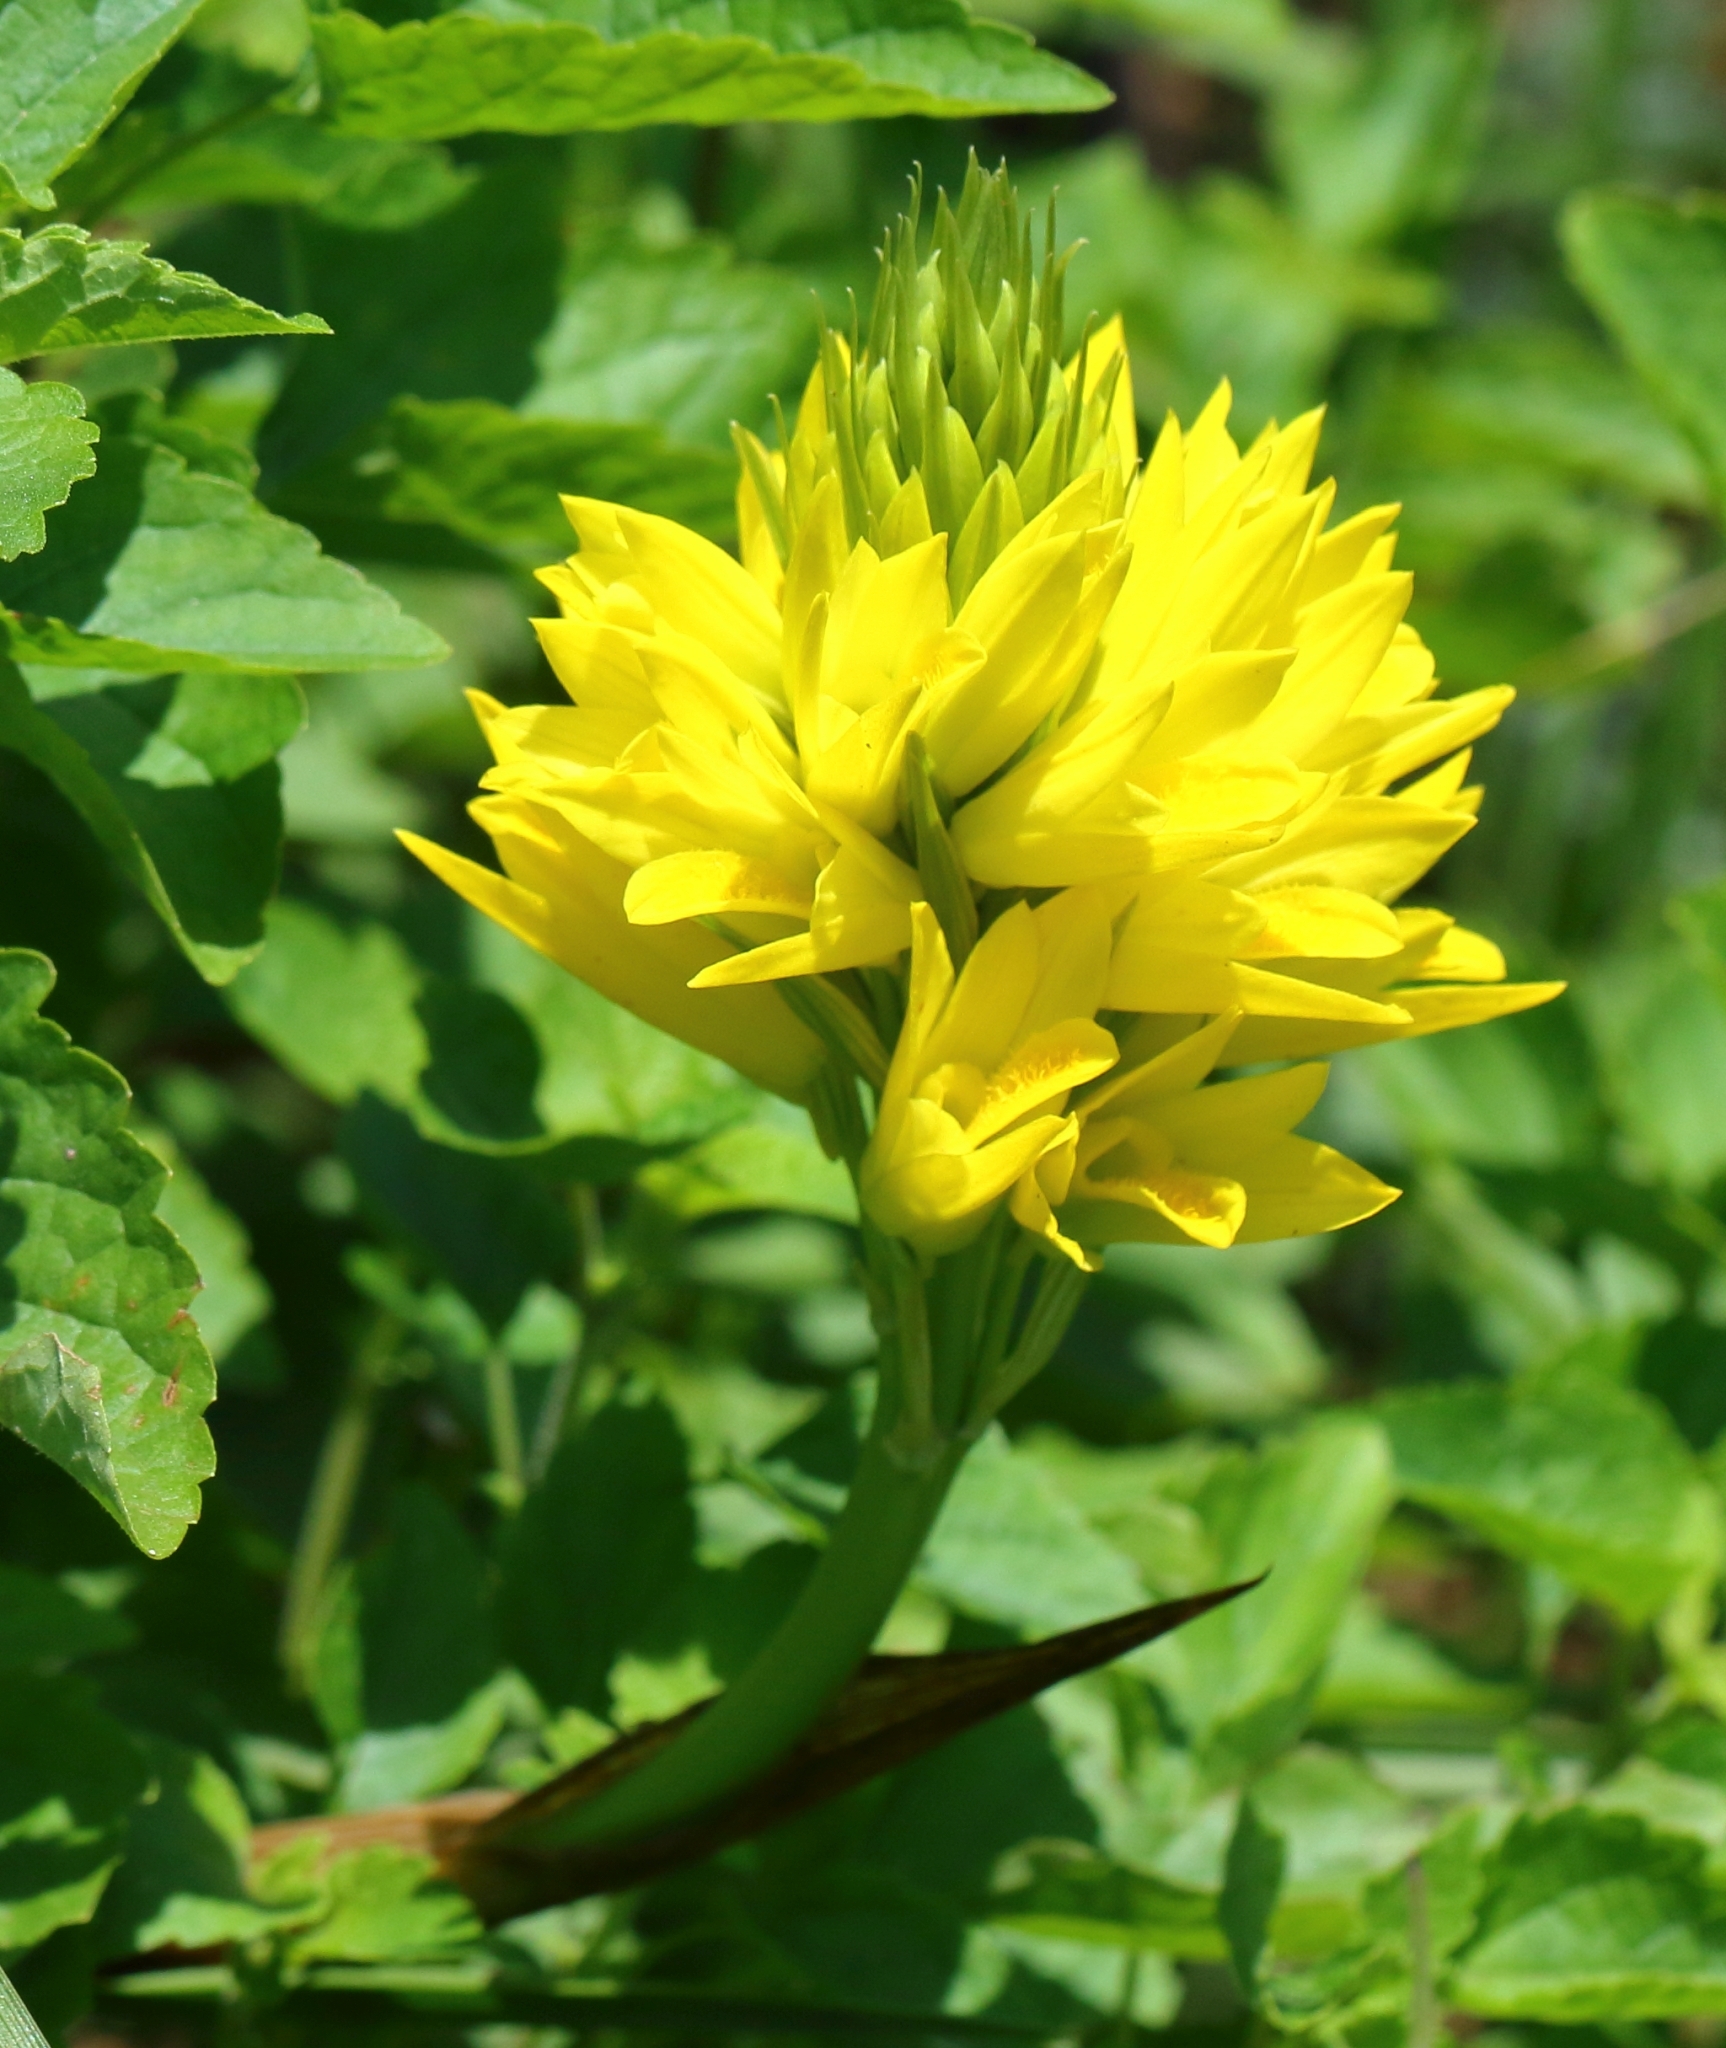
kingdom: Plantae
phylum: Tracheophyta
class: Liliopsida
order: Asparagales
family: Orchidaceae
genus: Eulophia
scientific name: Eulophia ensata
